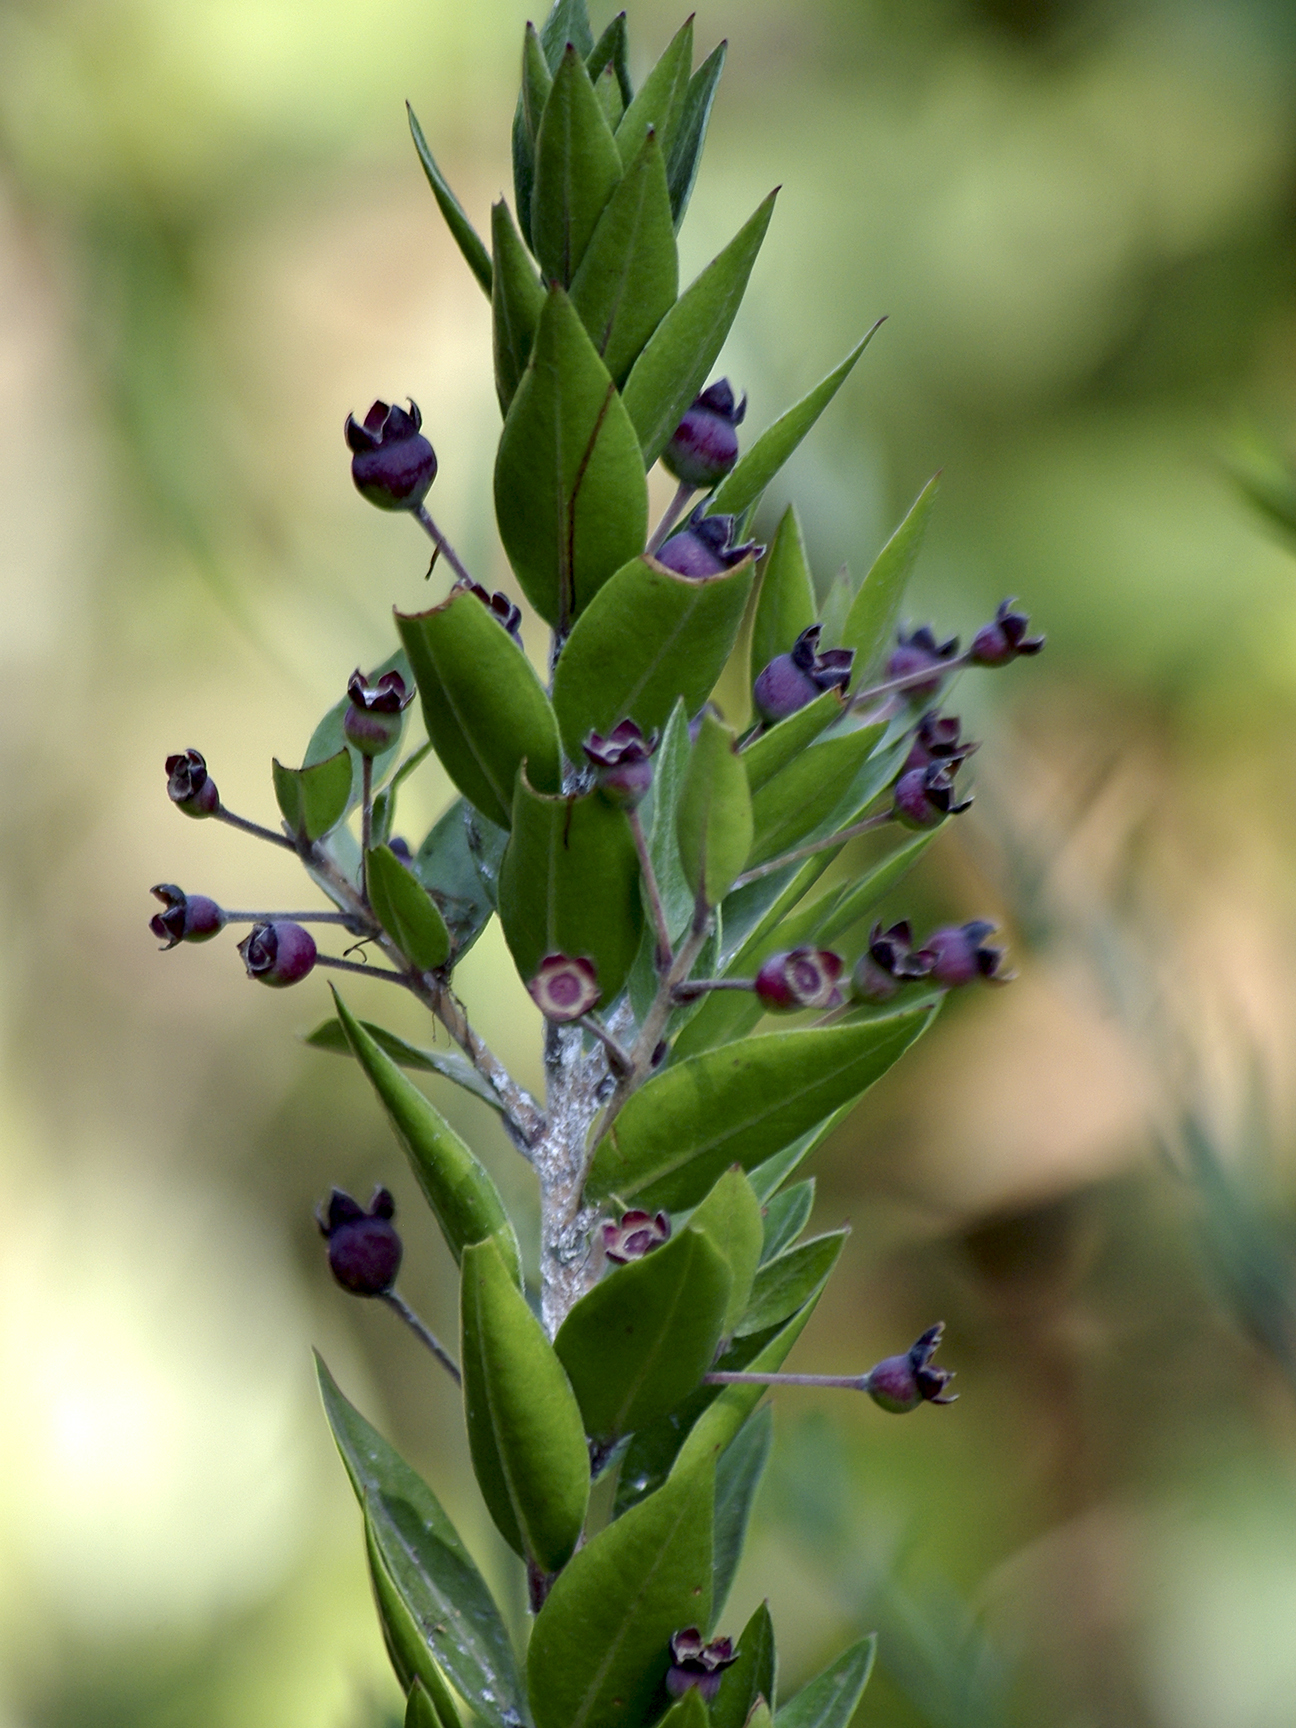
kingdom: Plantae
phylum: Tracheophyta
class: Magnoliopsida
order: Myrtales
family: Myrtaceae
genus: Myrtus
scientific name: Myrtus communis
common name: Myrtle
